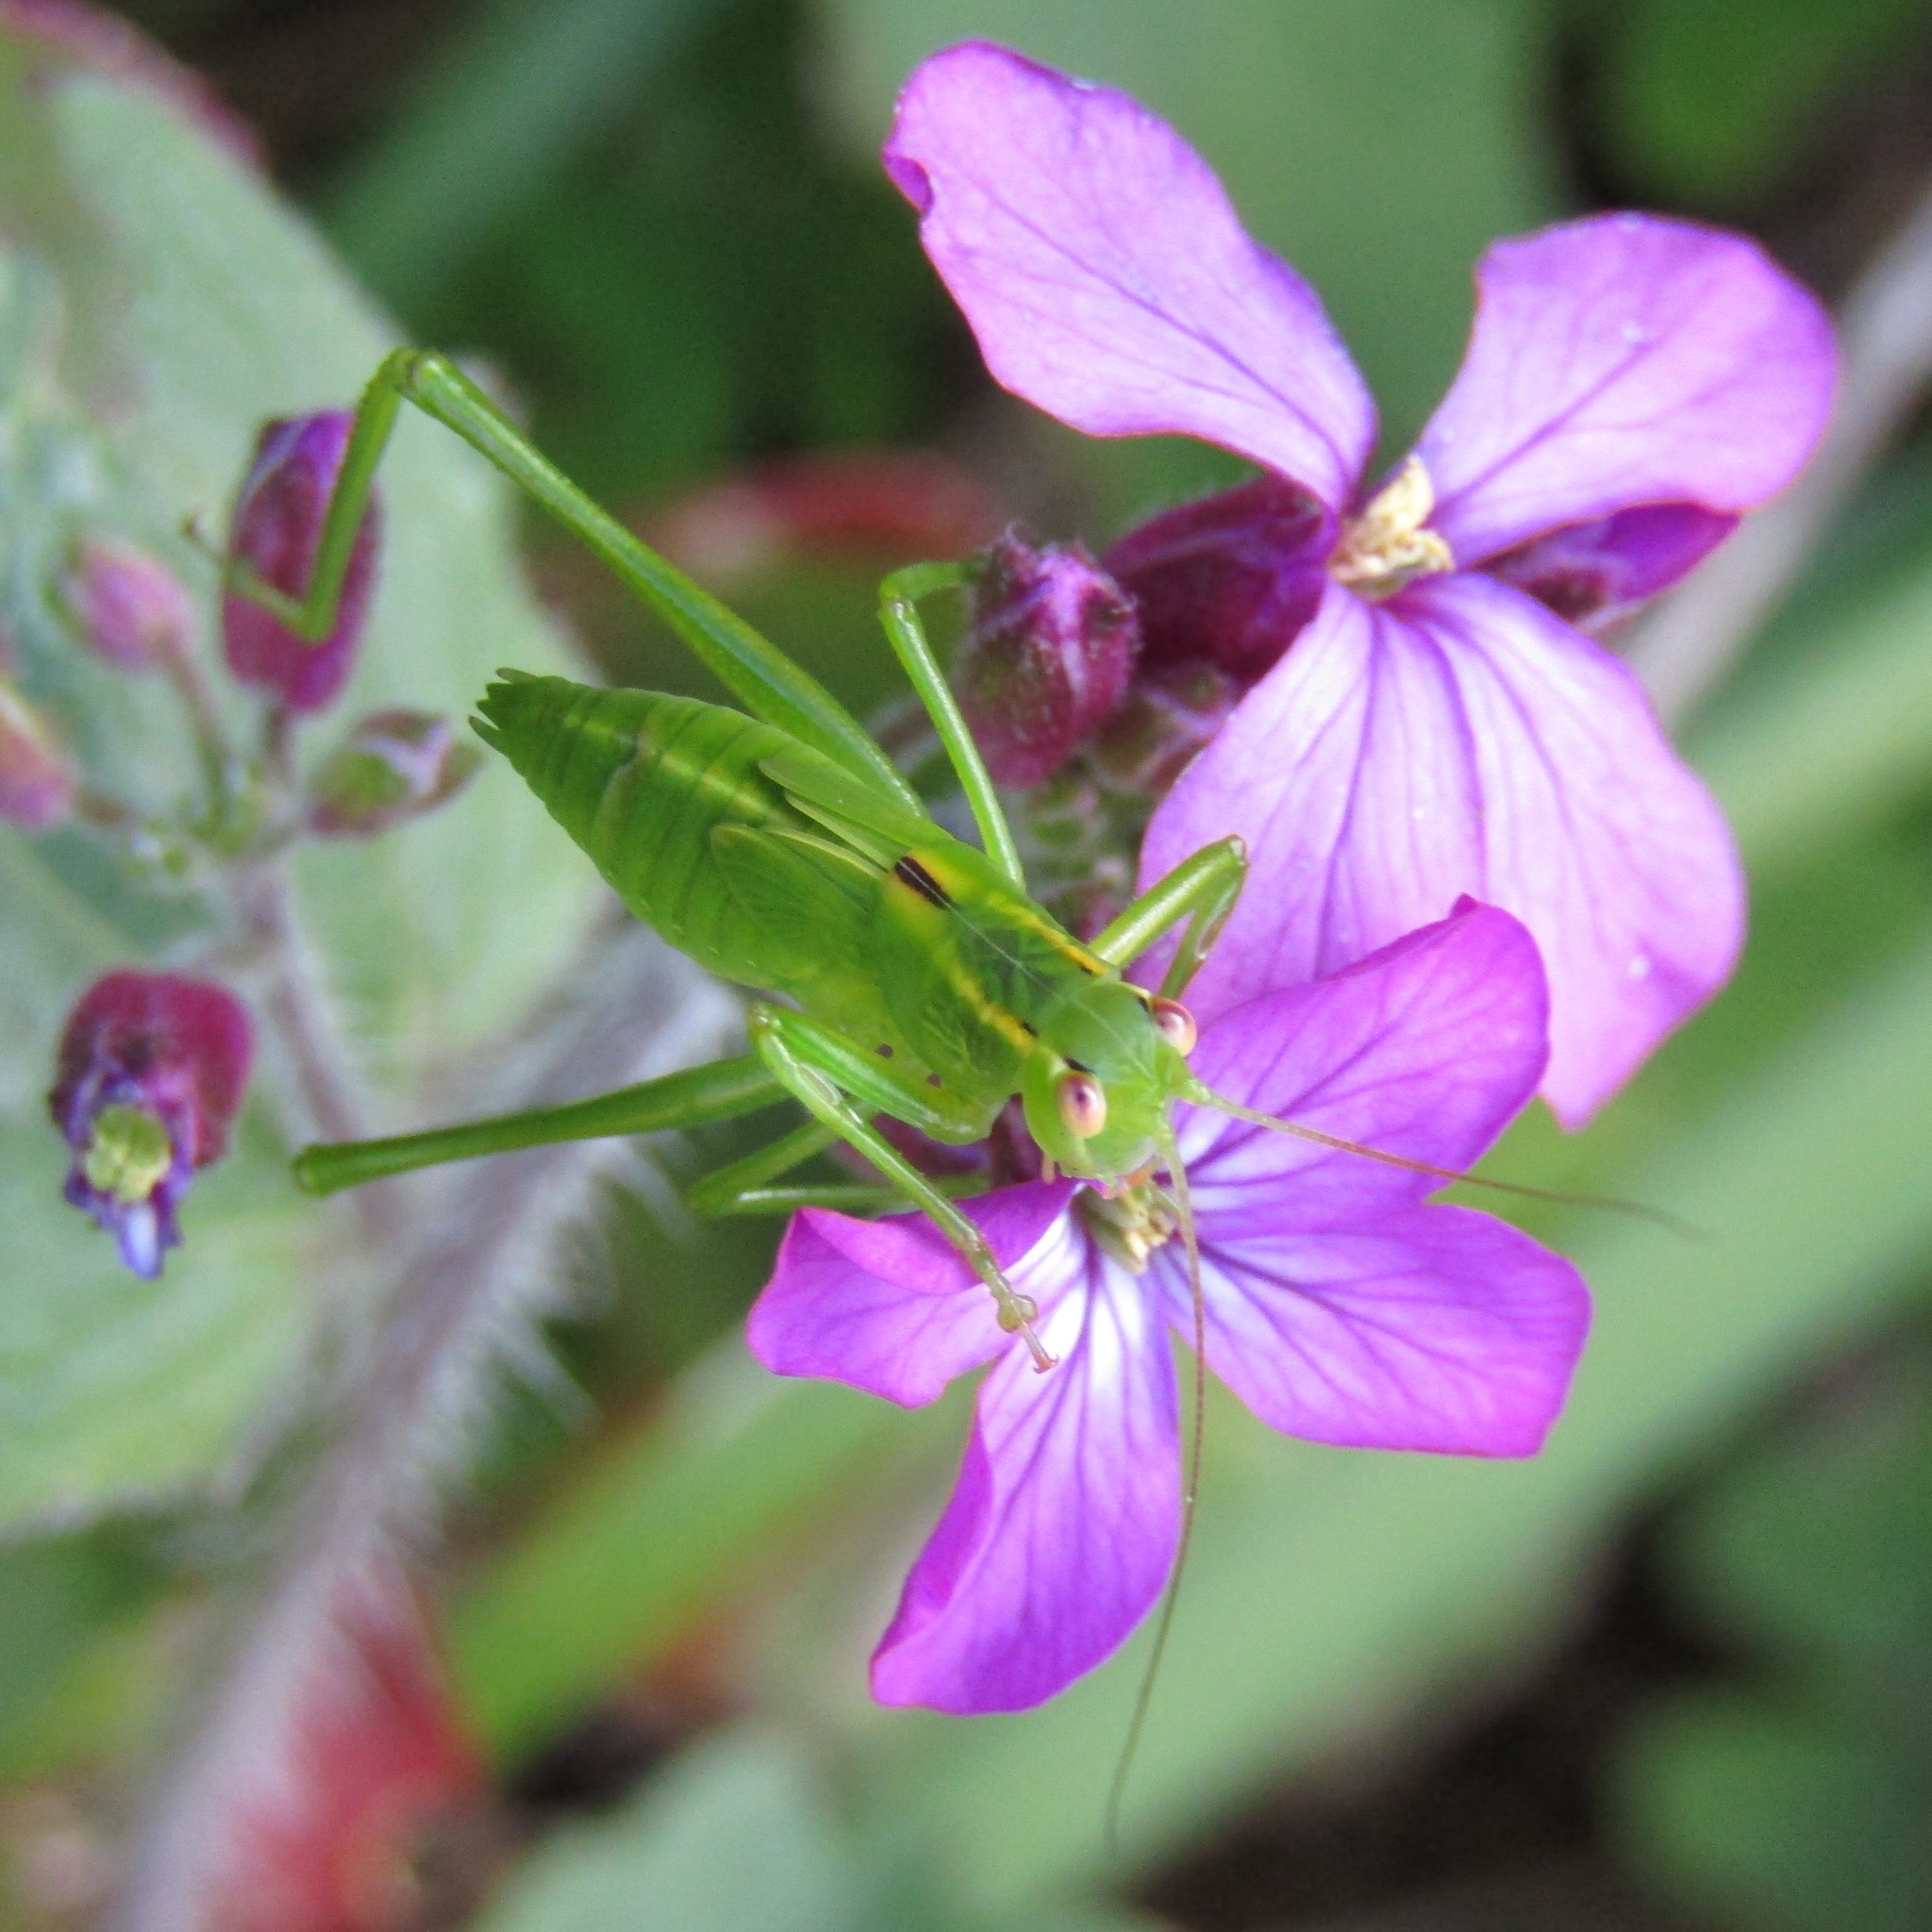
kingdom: Animalia
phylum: Arthropoda
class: Insecta
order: Orthoptera
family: Tettigoniidae
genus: Caedicia
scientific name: Caedicia simplex
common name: Common garden katydid
